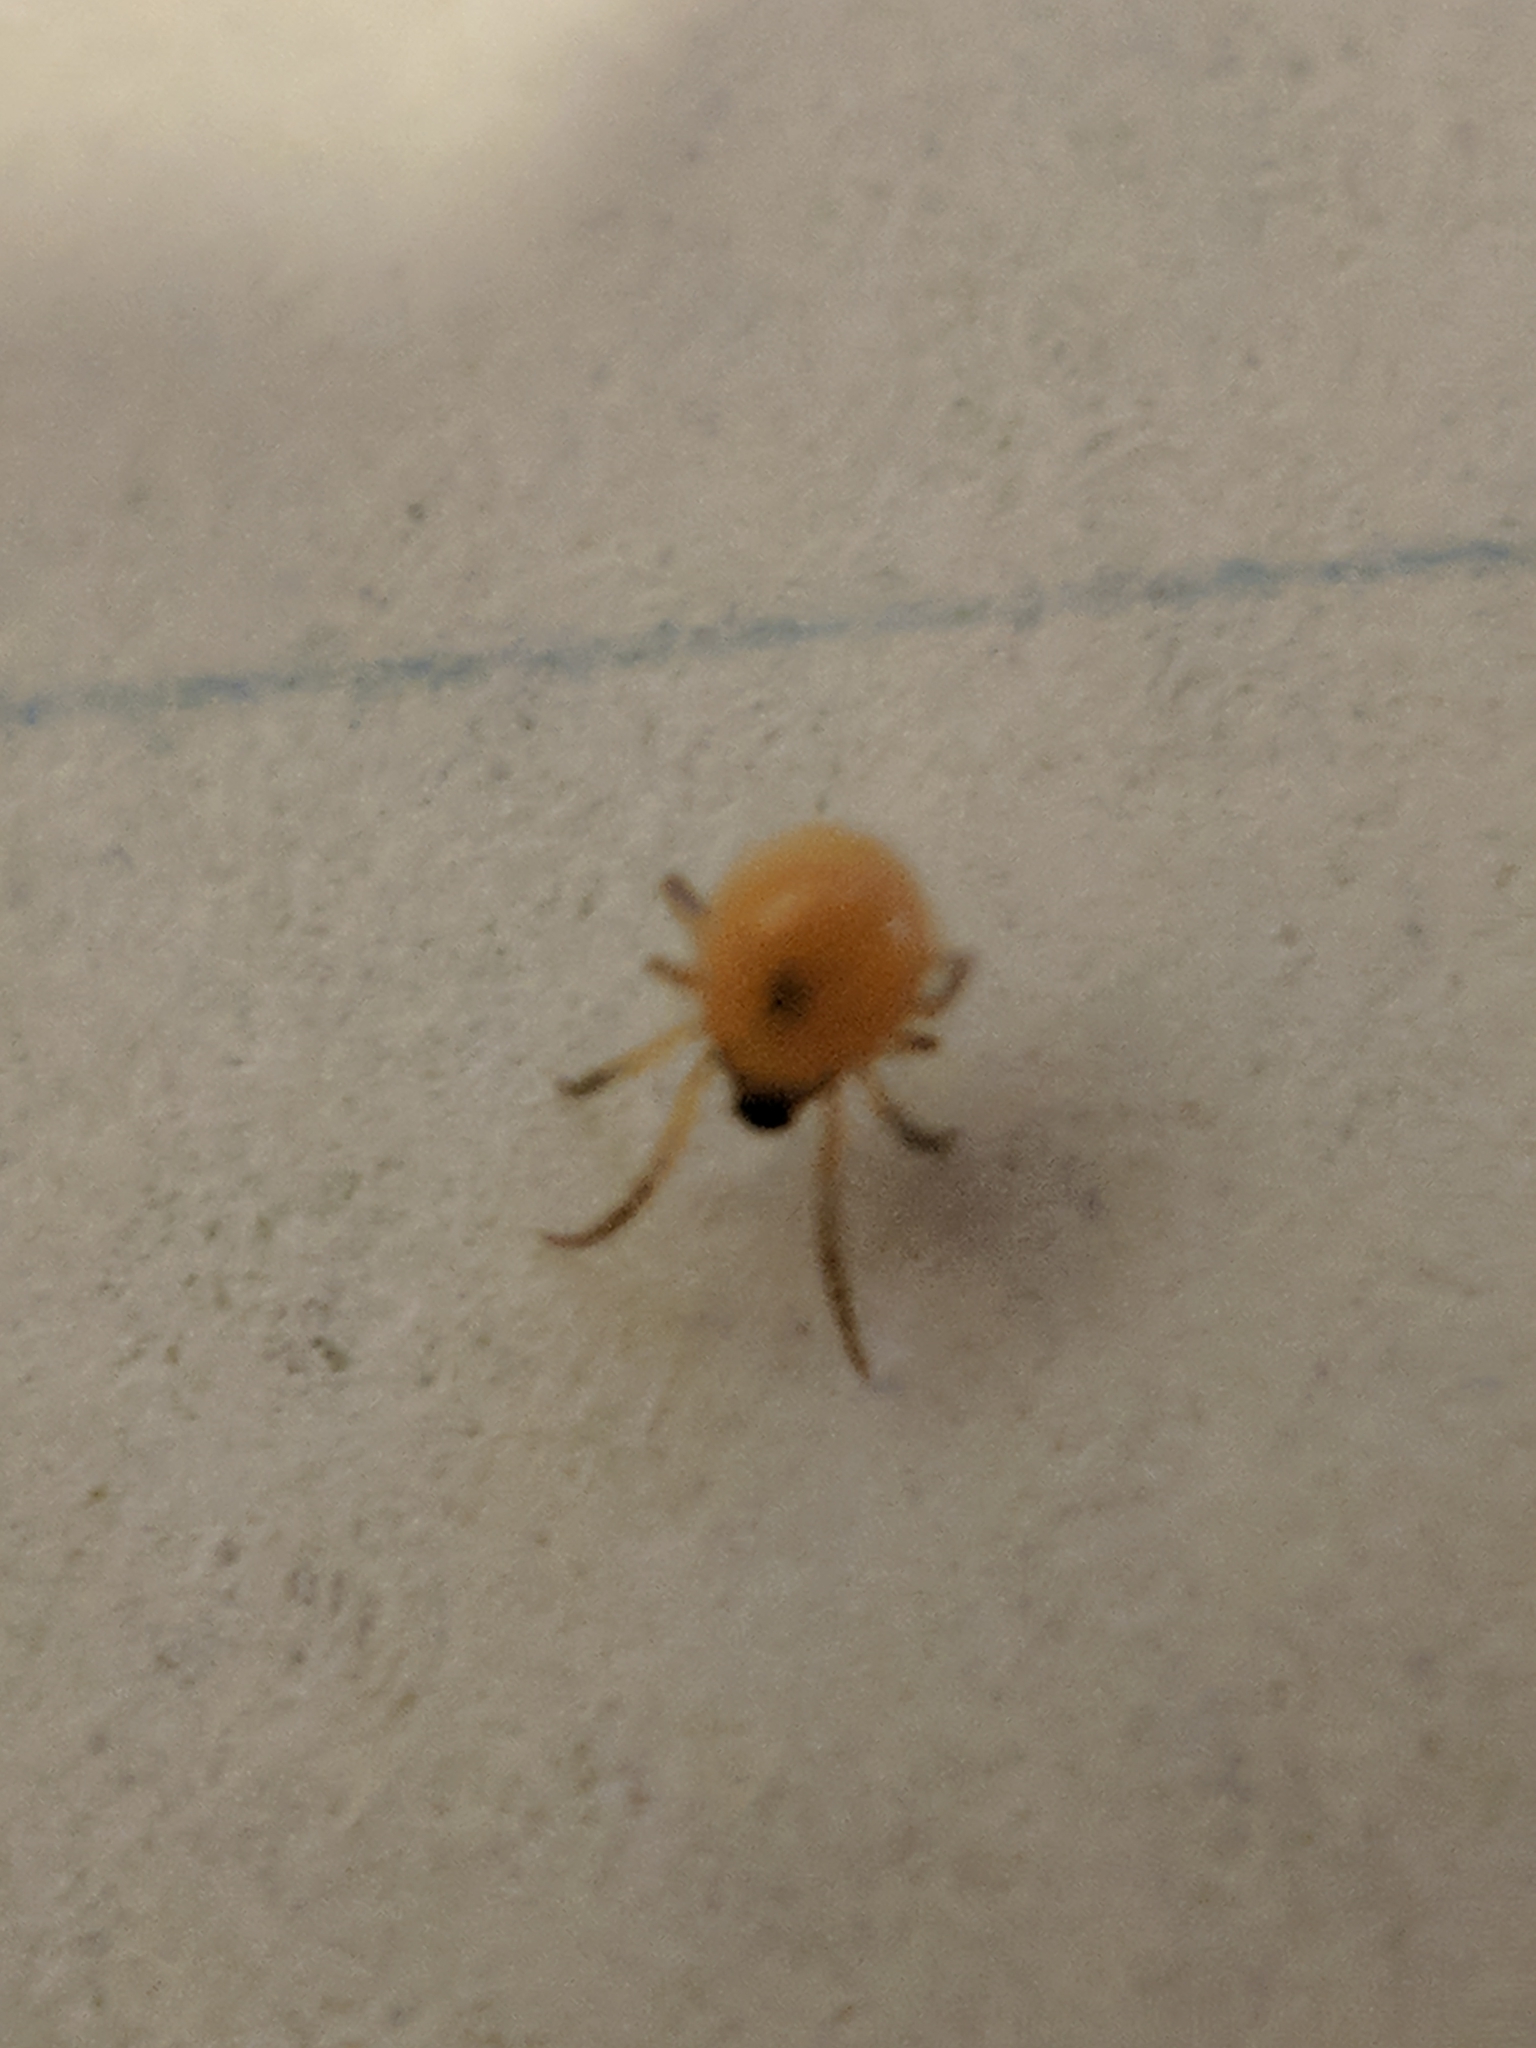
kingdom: Animalia
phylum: Arthropoda
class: Arachnida
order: Araneae
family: Theridiidae
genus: Thymoites
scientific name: Thymoites unimaculatus
